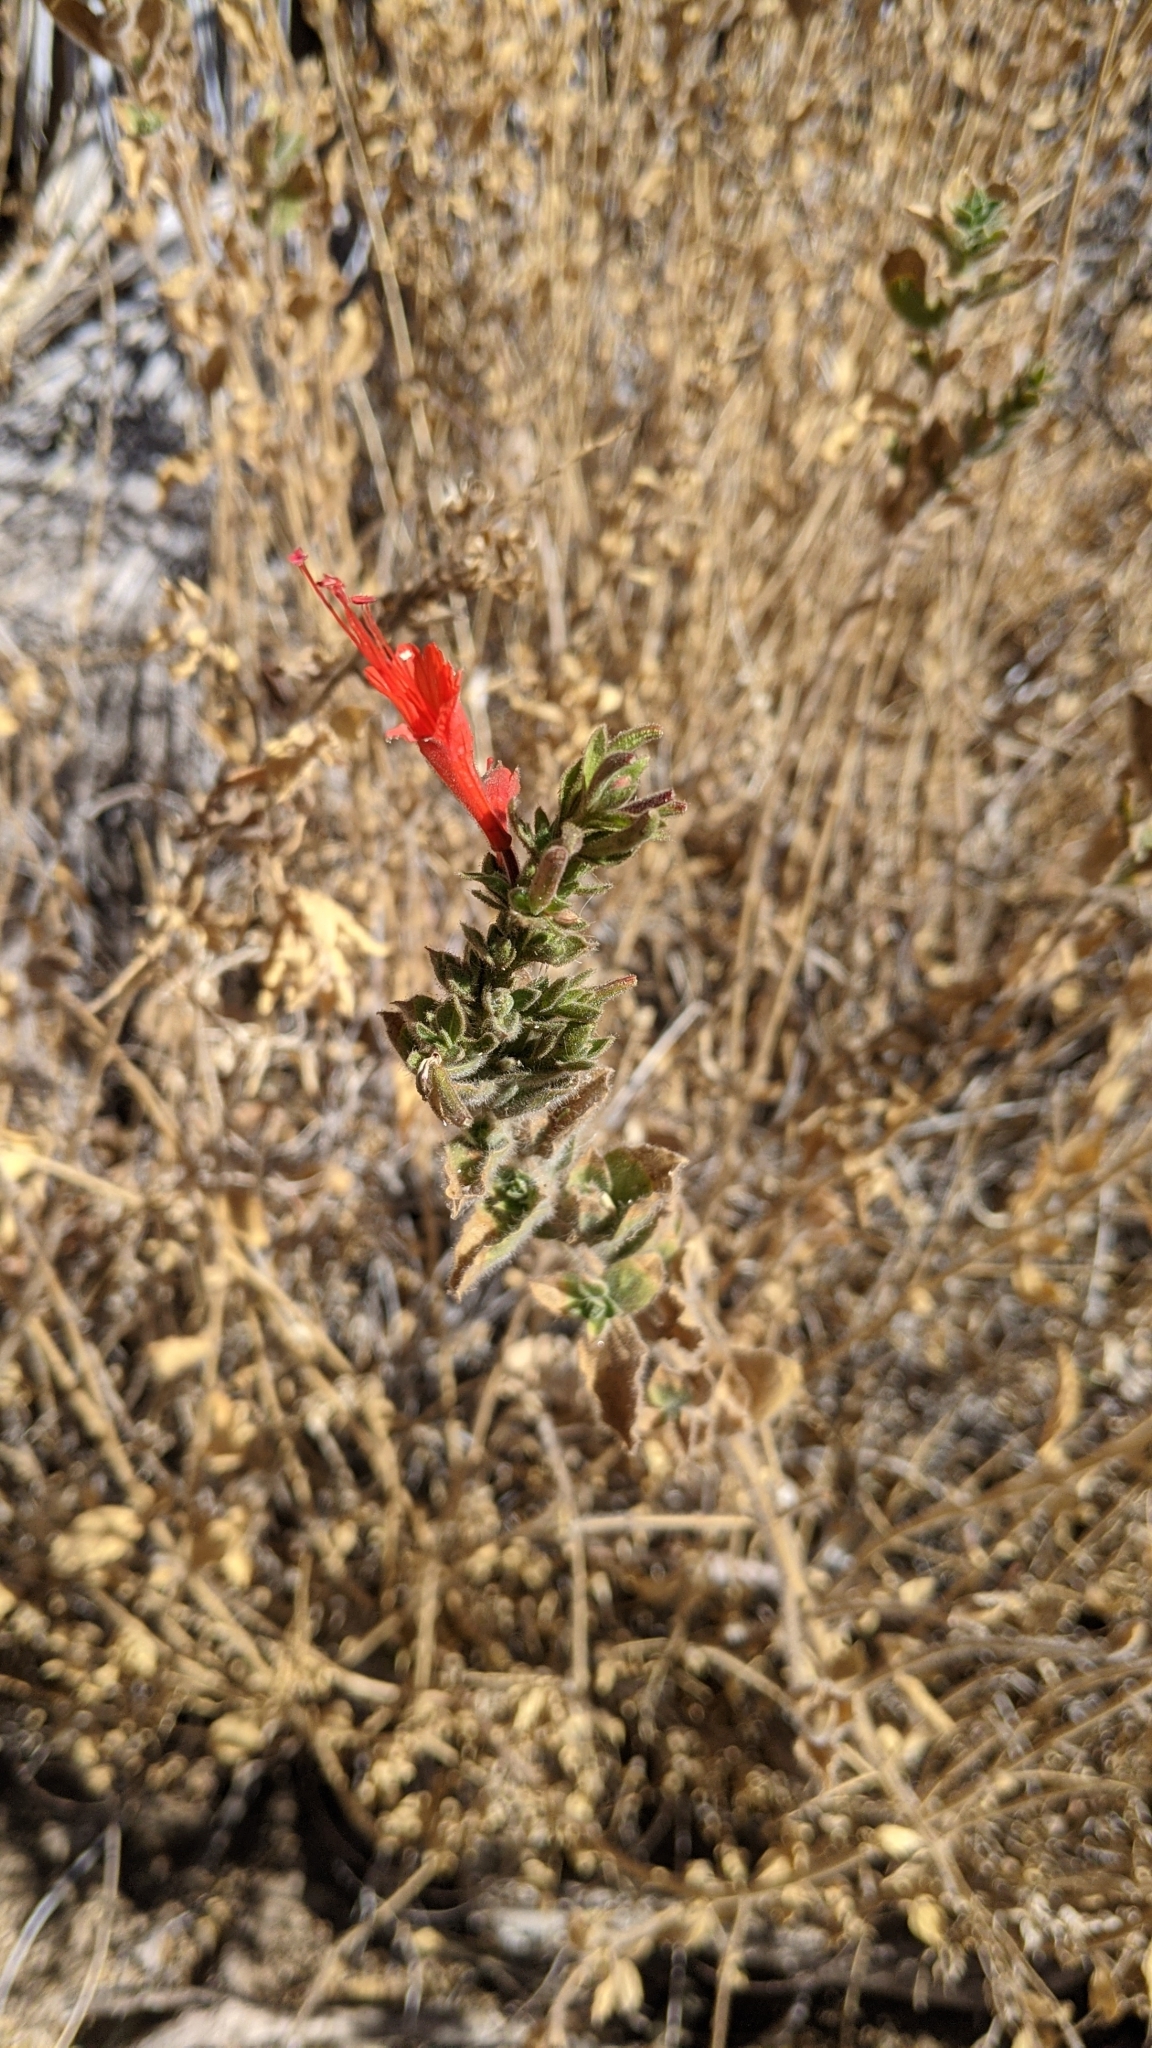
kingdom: Plantae
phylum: Tracheophyta
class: Magnoliopsida
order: Myrtales
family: Onagraceae
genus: Epilobium
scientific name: Epilobium canum
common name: California-fuchsia
